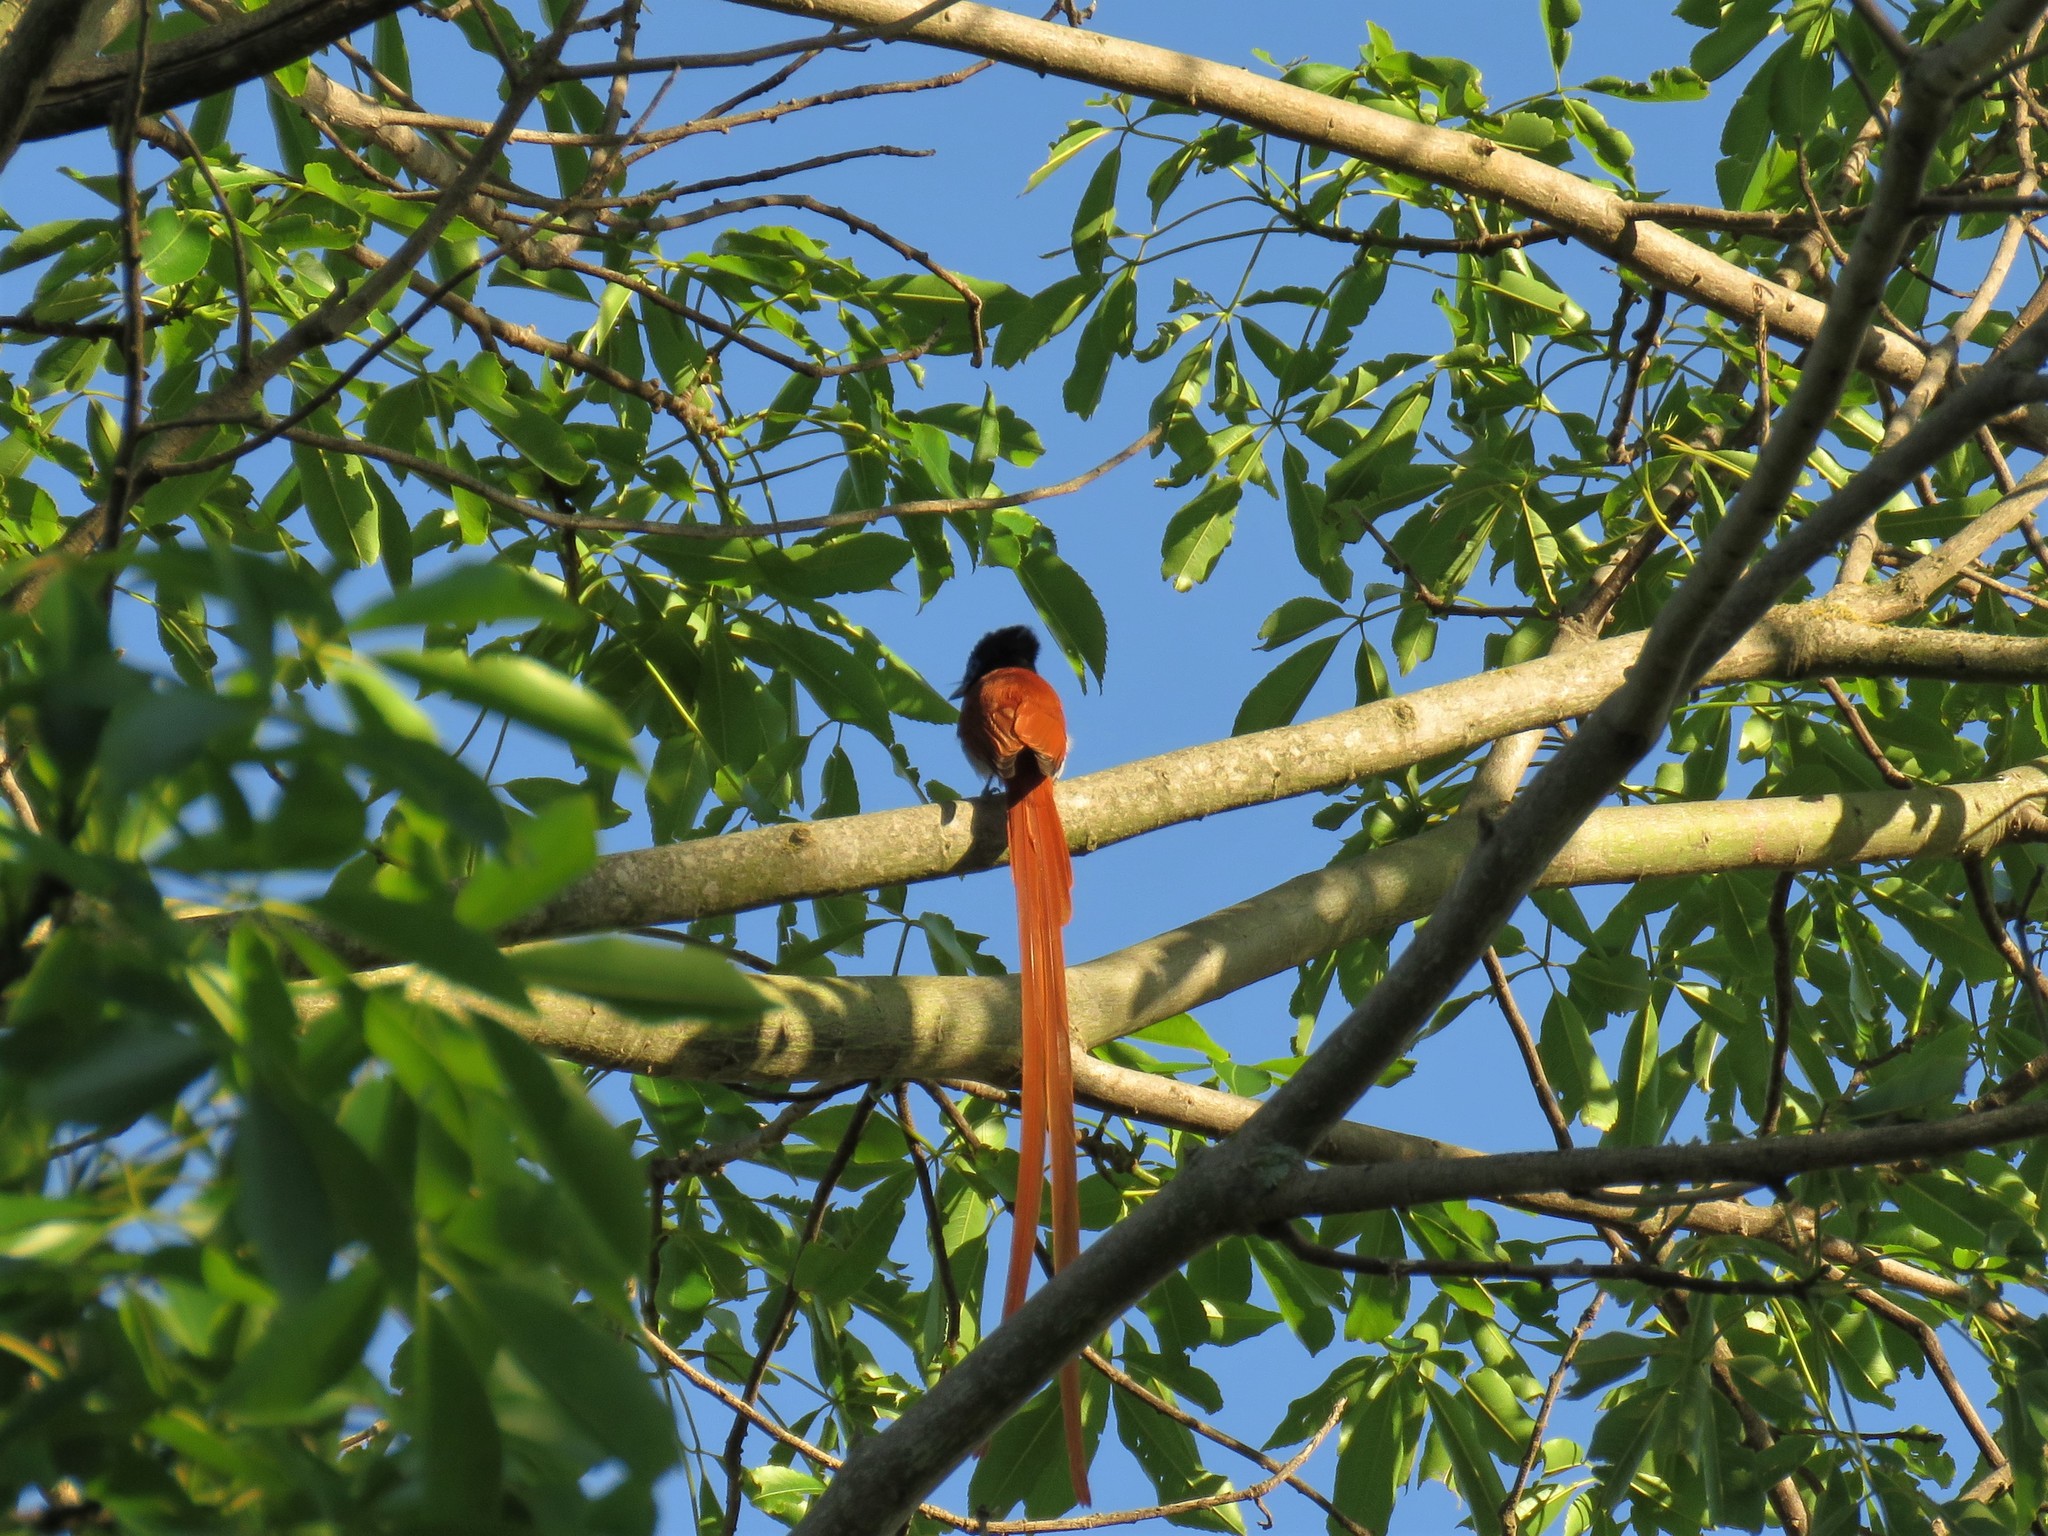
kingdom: Animalia
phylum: Chordata
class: Aves
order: Passeriformes
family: Monarchidae
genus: Terpsiphone
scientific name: Terpsiphone viridis
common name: African paradise flycatcher
